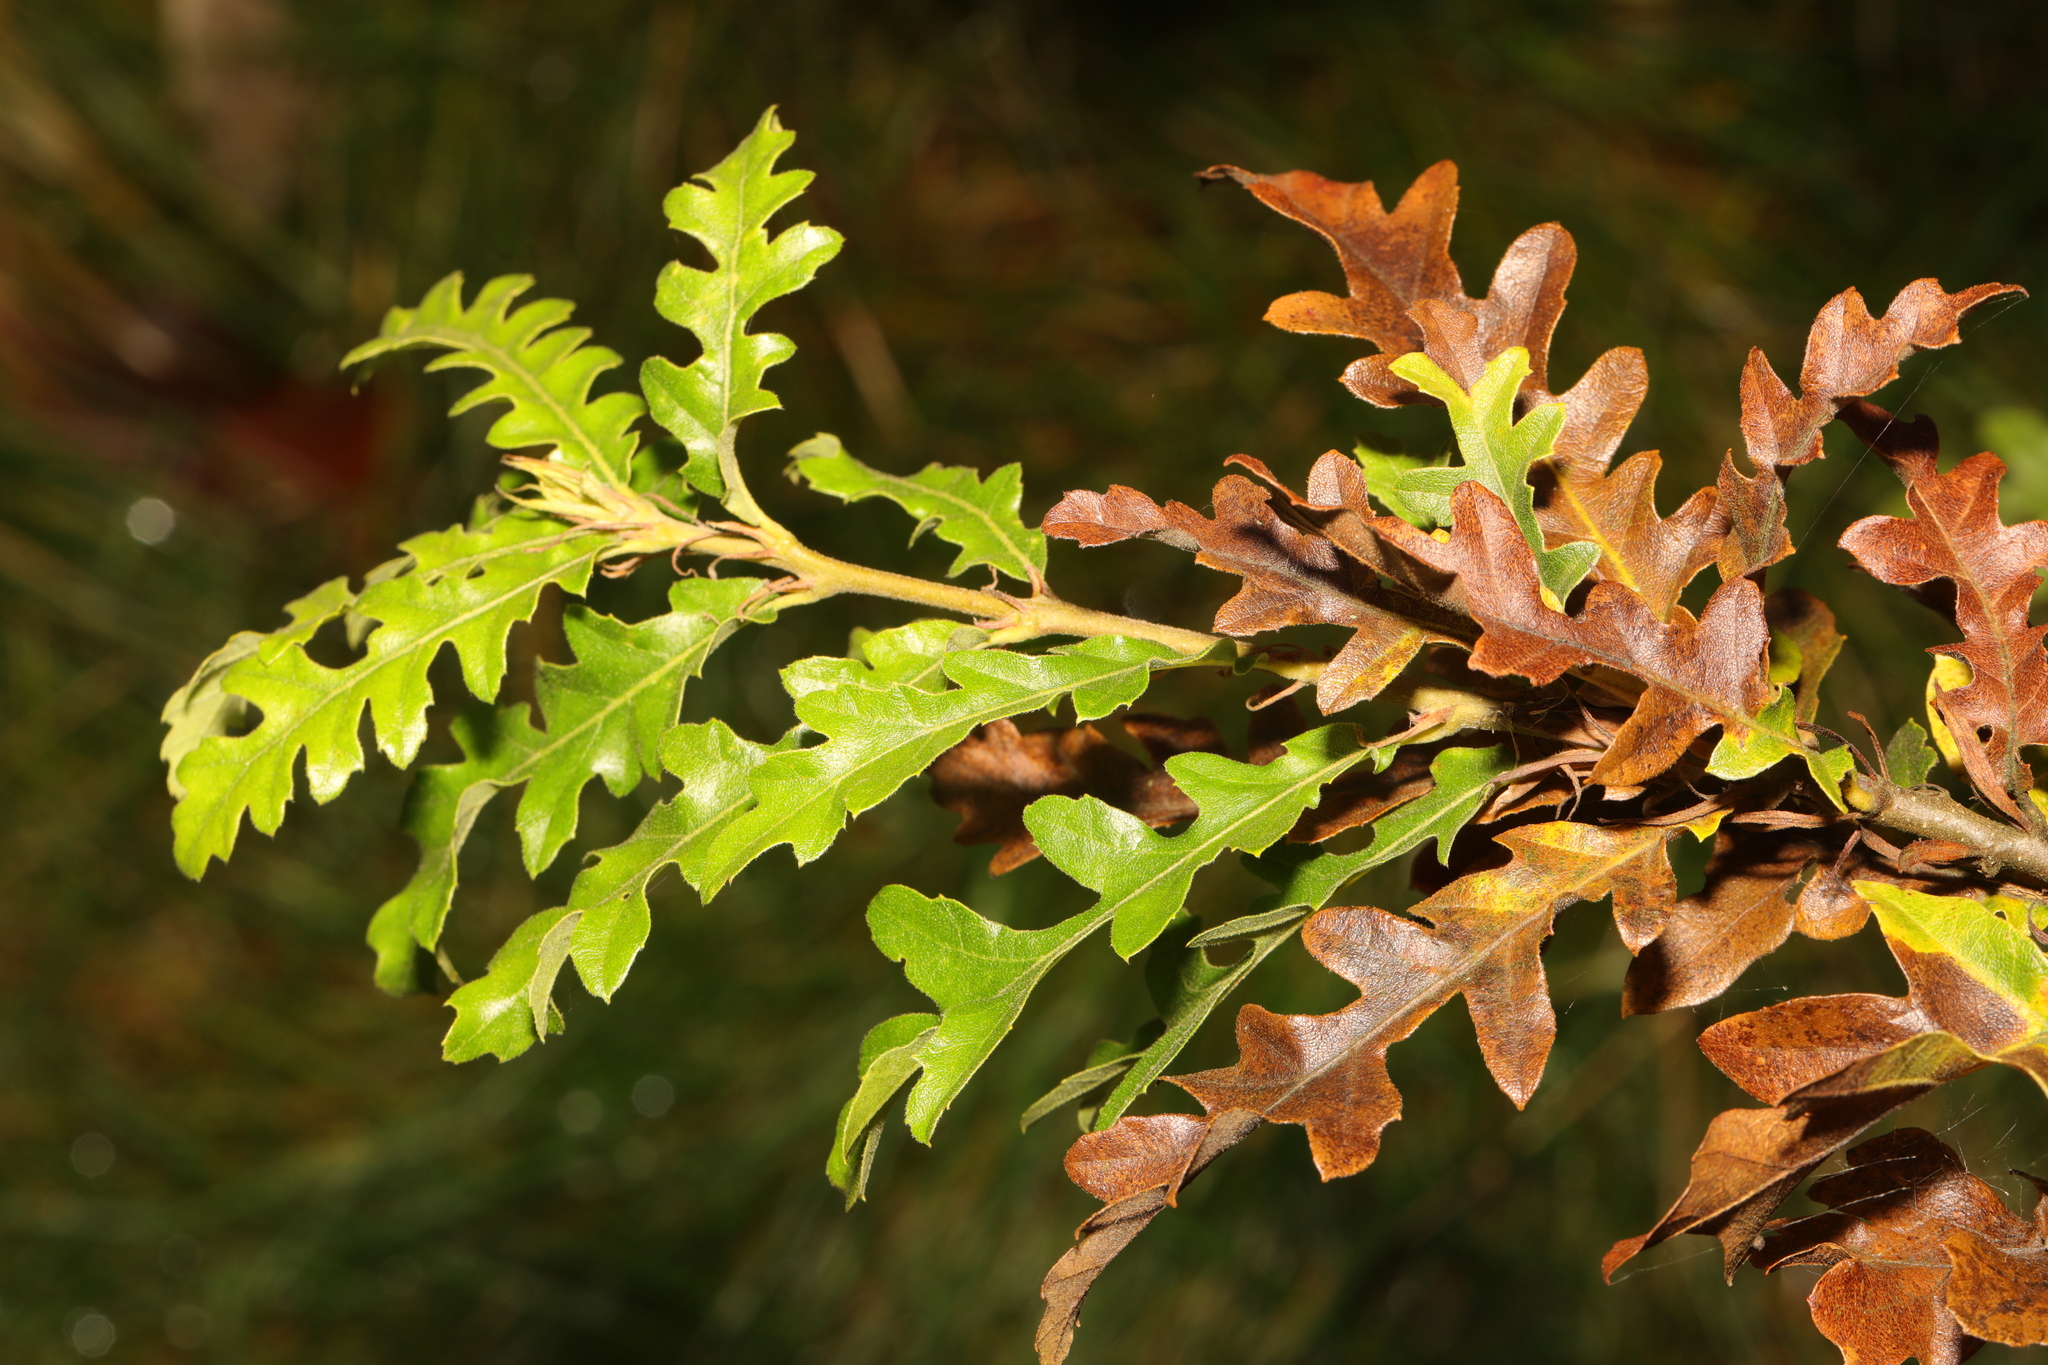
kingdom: Plantae
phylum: Tracheophyta
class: Magnoliopsida
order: Fagales
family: Fagaceae
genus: Quercus
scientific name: Quercus cerris
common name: Turkey oak
